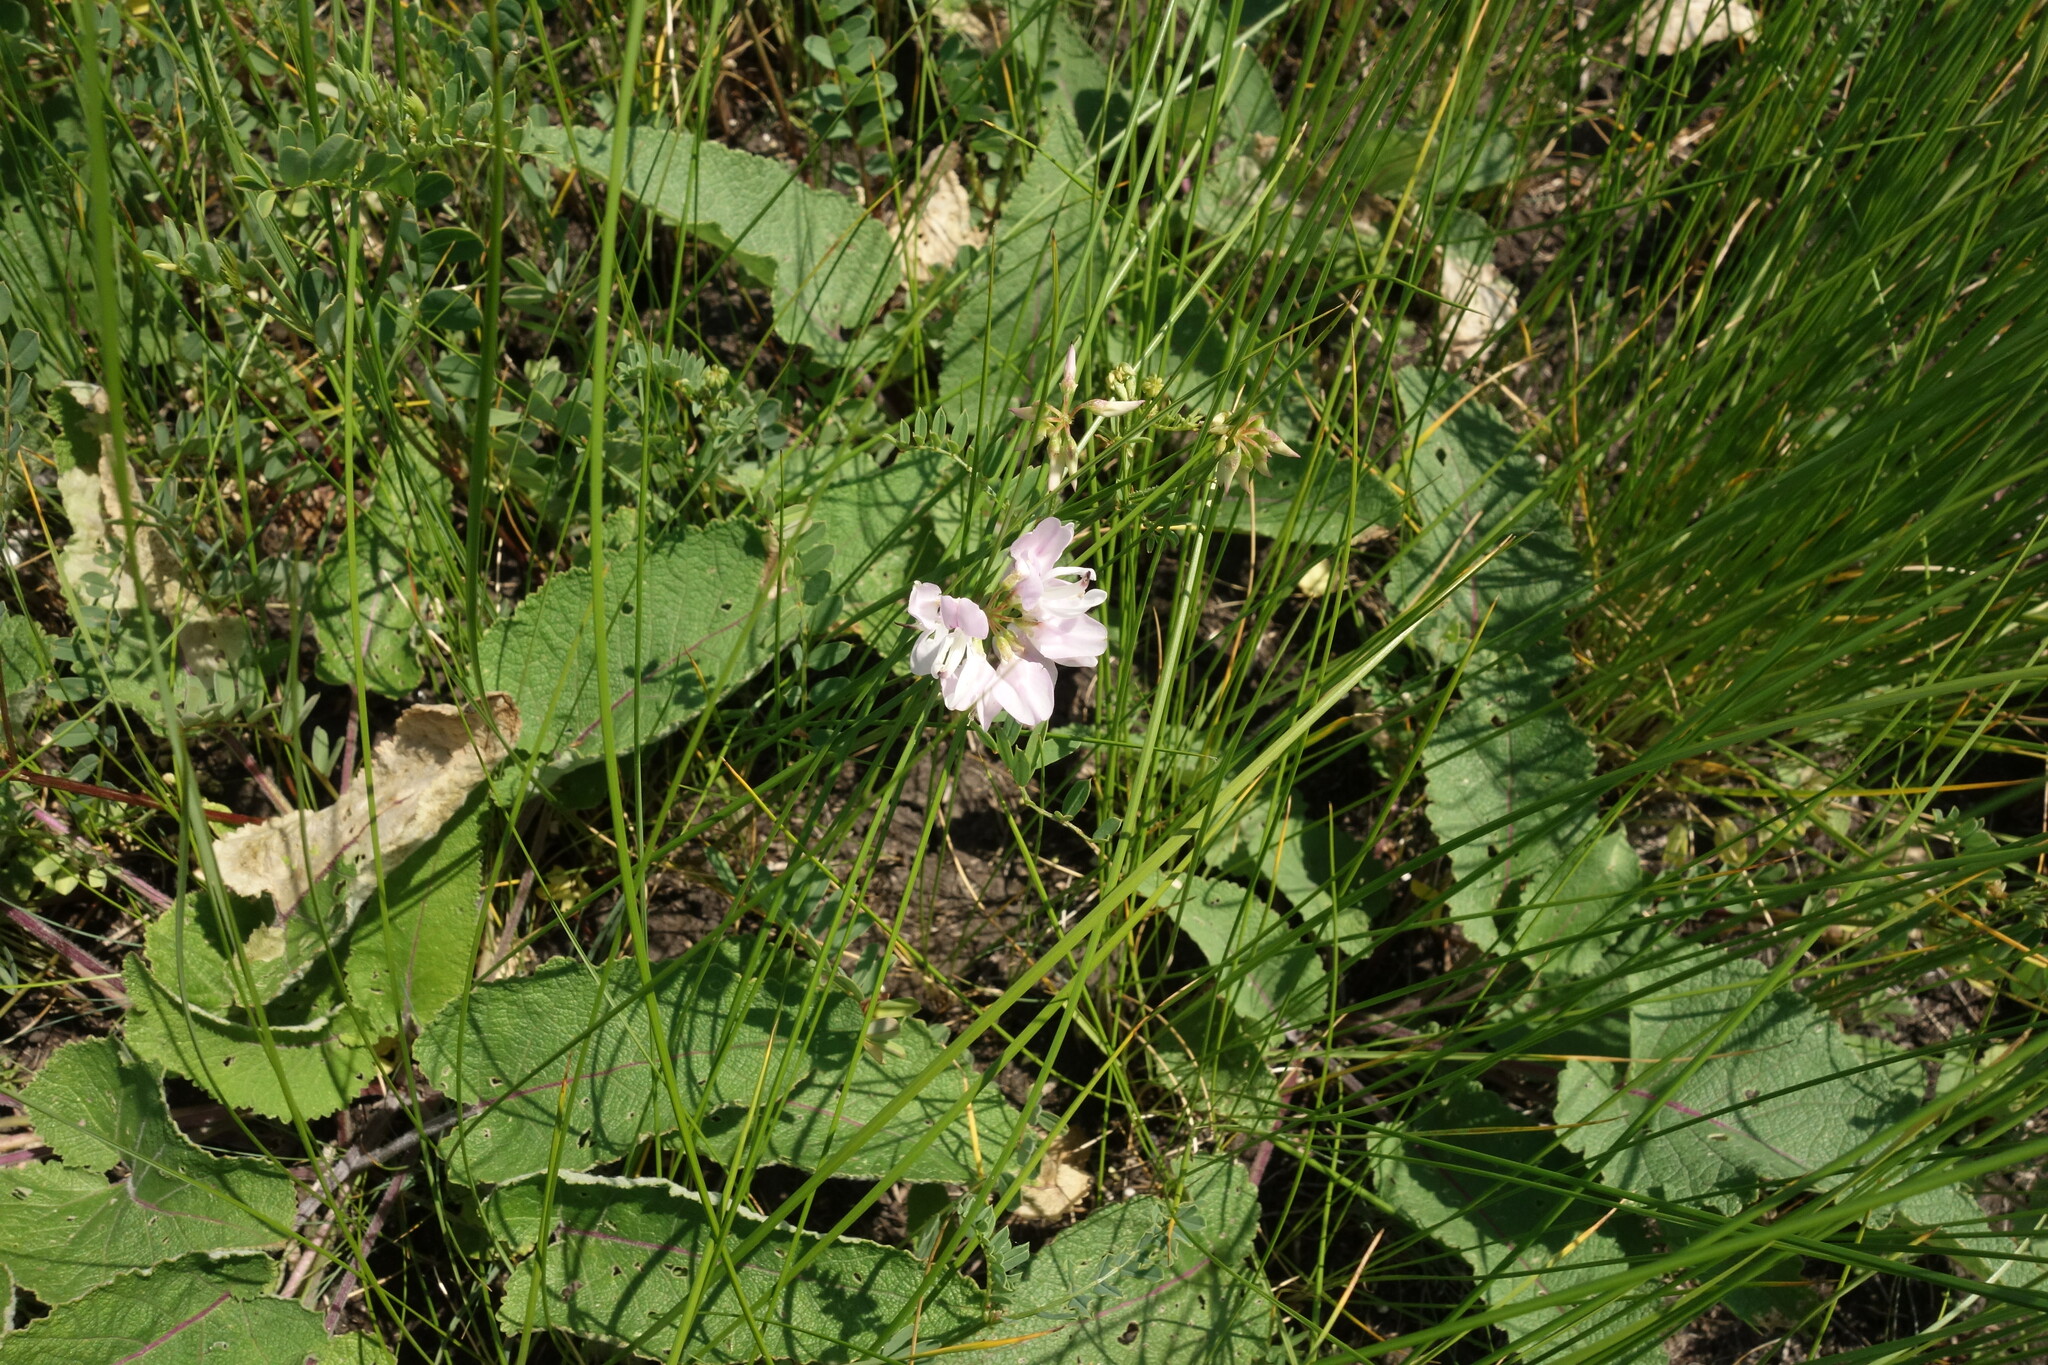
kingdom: Plantae
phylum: Tracheophyta
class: Magnoliopsida
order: Fabales
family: Fabaceae
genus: Coronilla
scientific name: Coronilla varia
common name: Crownvetch
